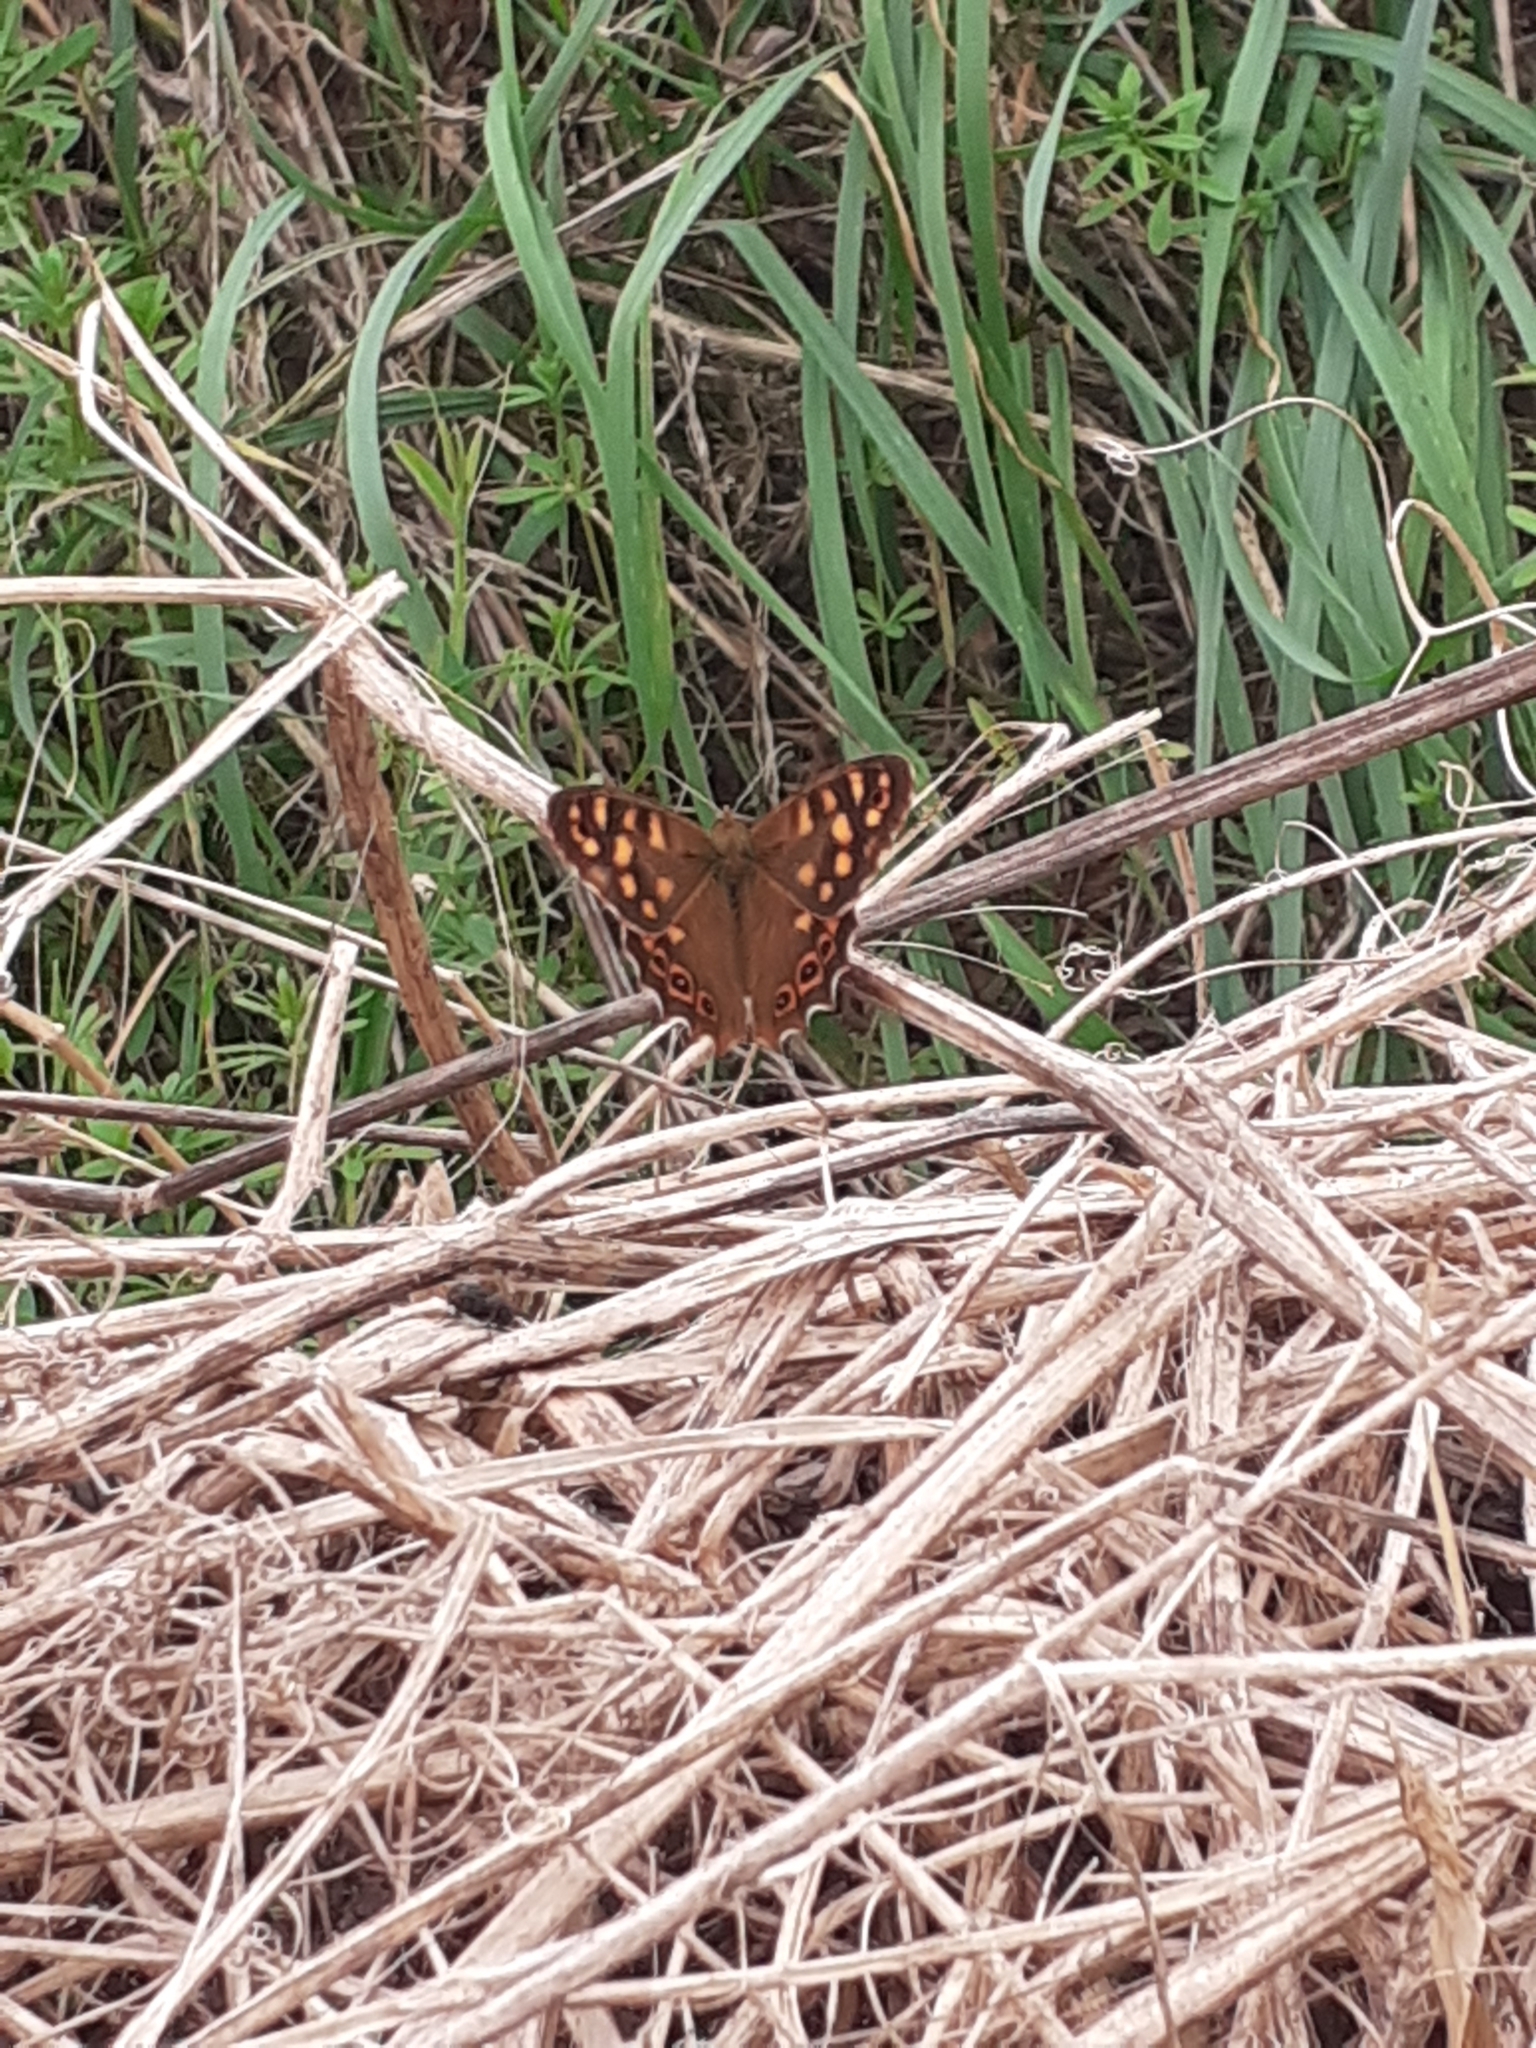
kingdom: Animalia
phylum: Arthropoda
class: Insecta
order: Lepidoptera
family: Nymphalidae
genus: Pararge
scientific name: Pararge aegeria
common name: Speckled wood
